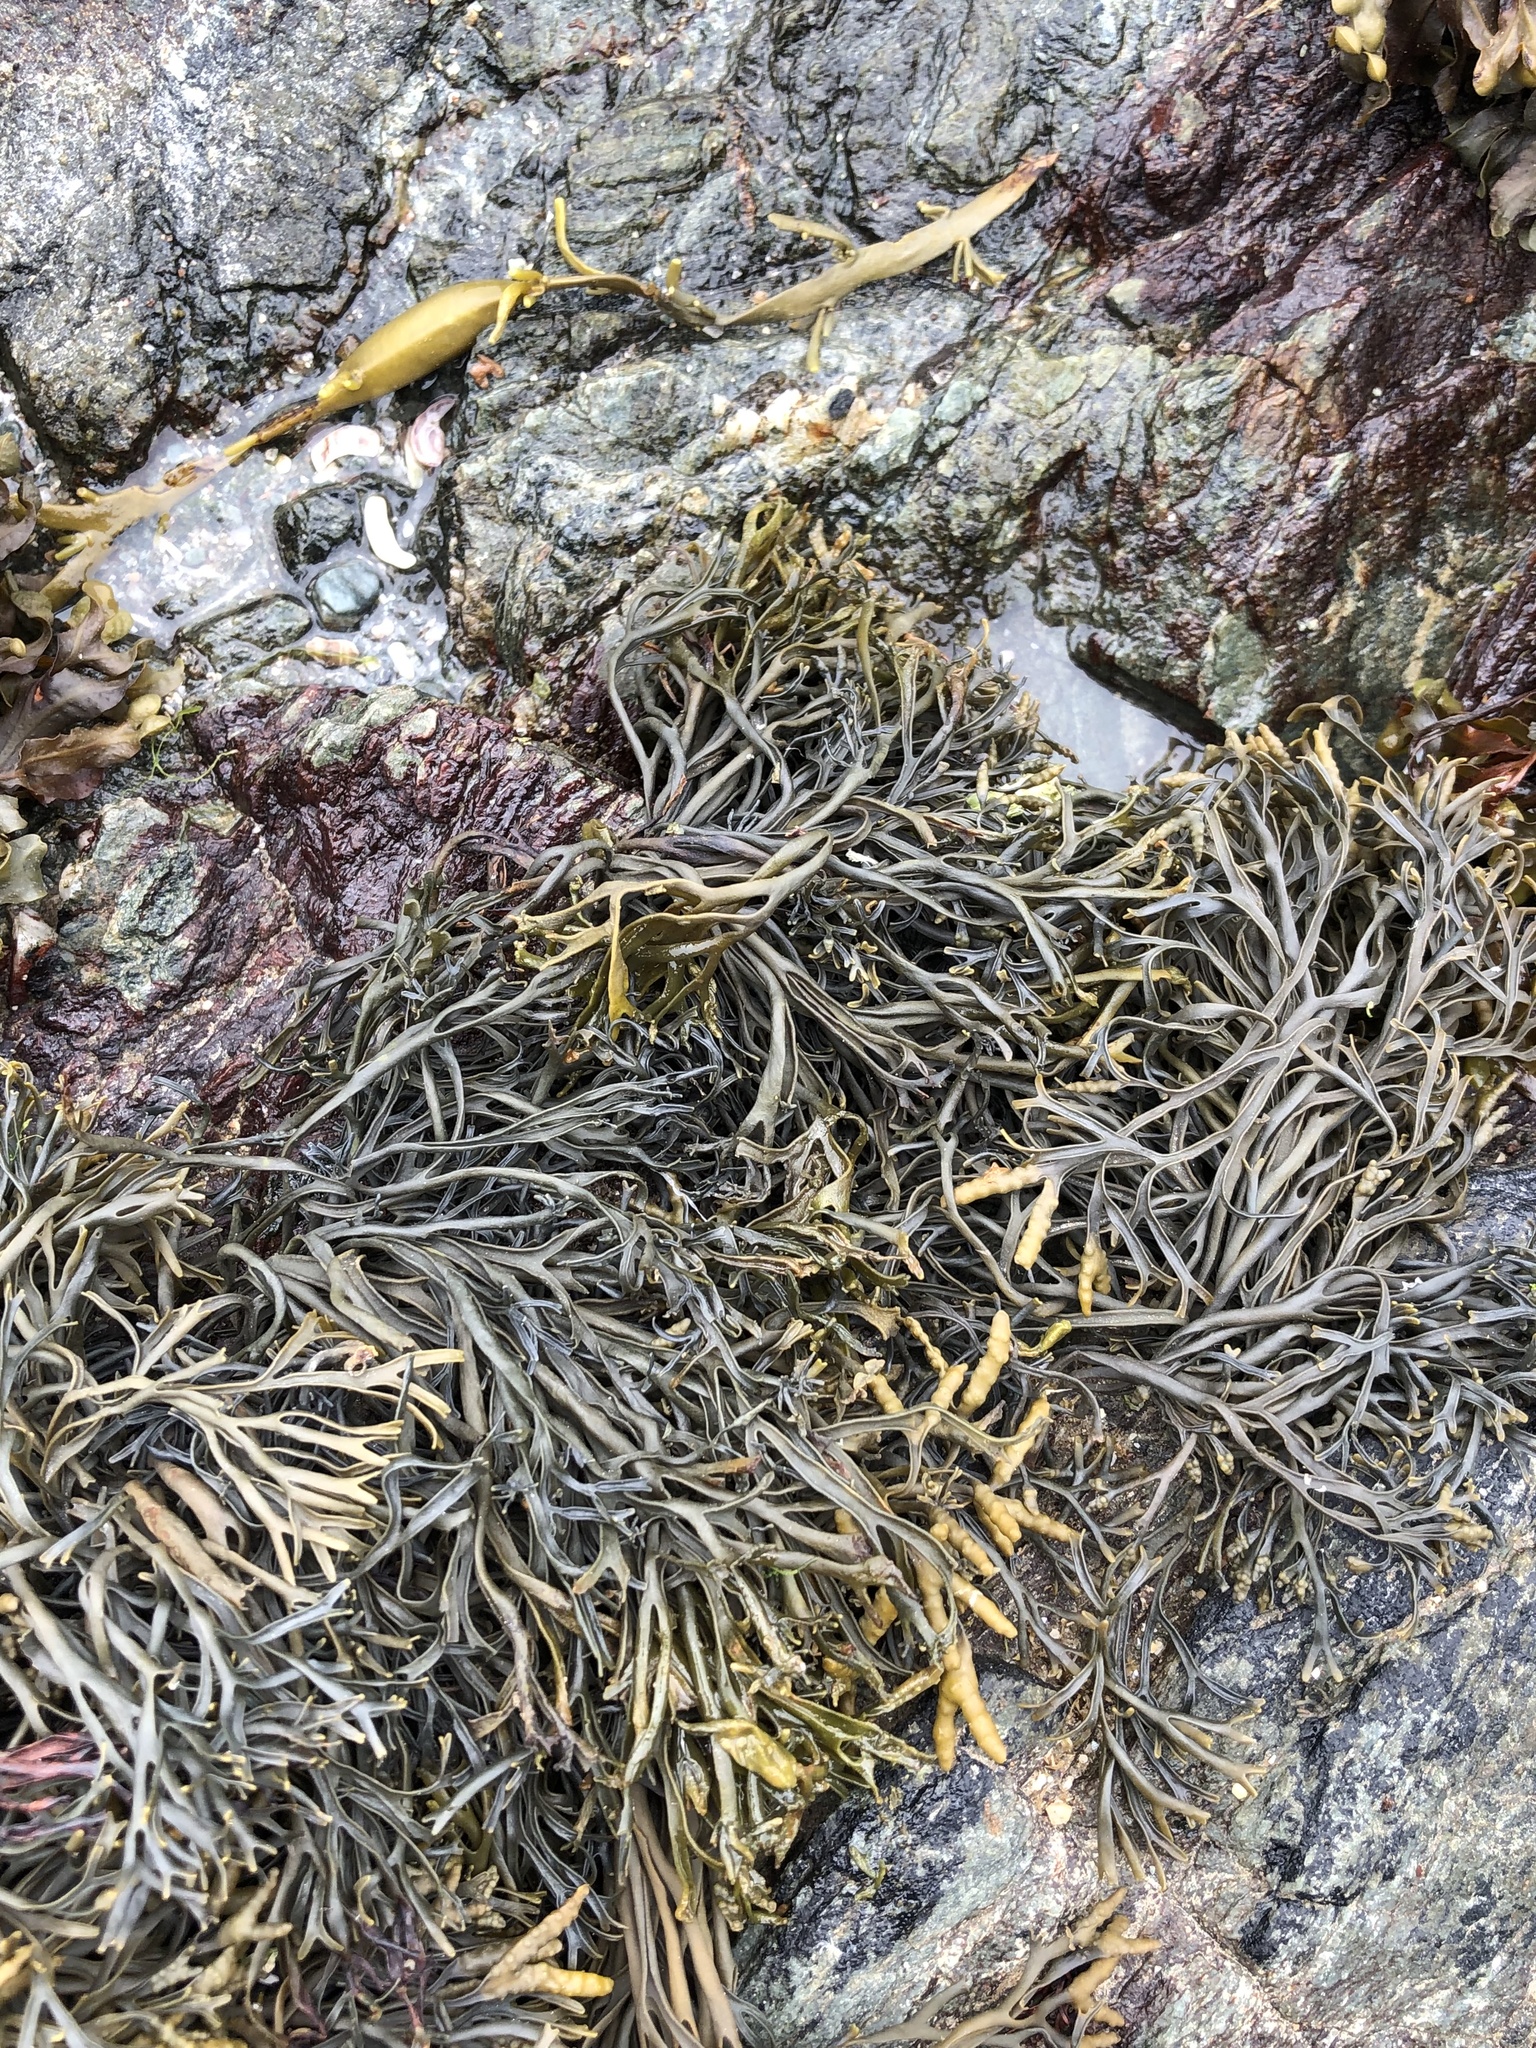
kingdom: Chromista
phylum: Ochrophyta
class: Phaeophyceae
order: Fucales
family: Fucaceae
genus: Pelvetia
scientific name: Pelvetia canaliculata
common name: Channelled wrack
